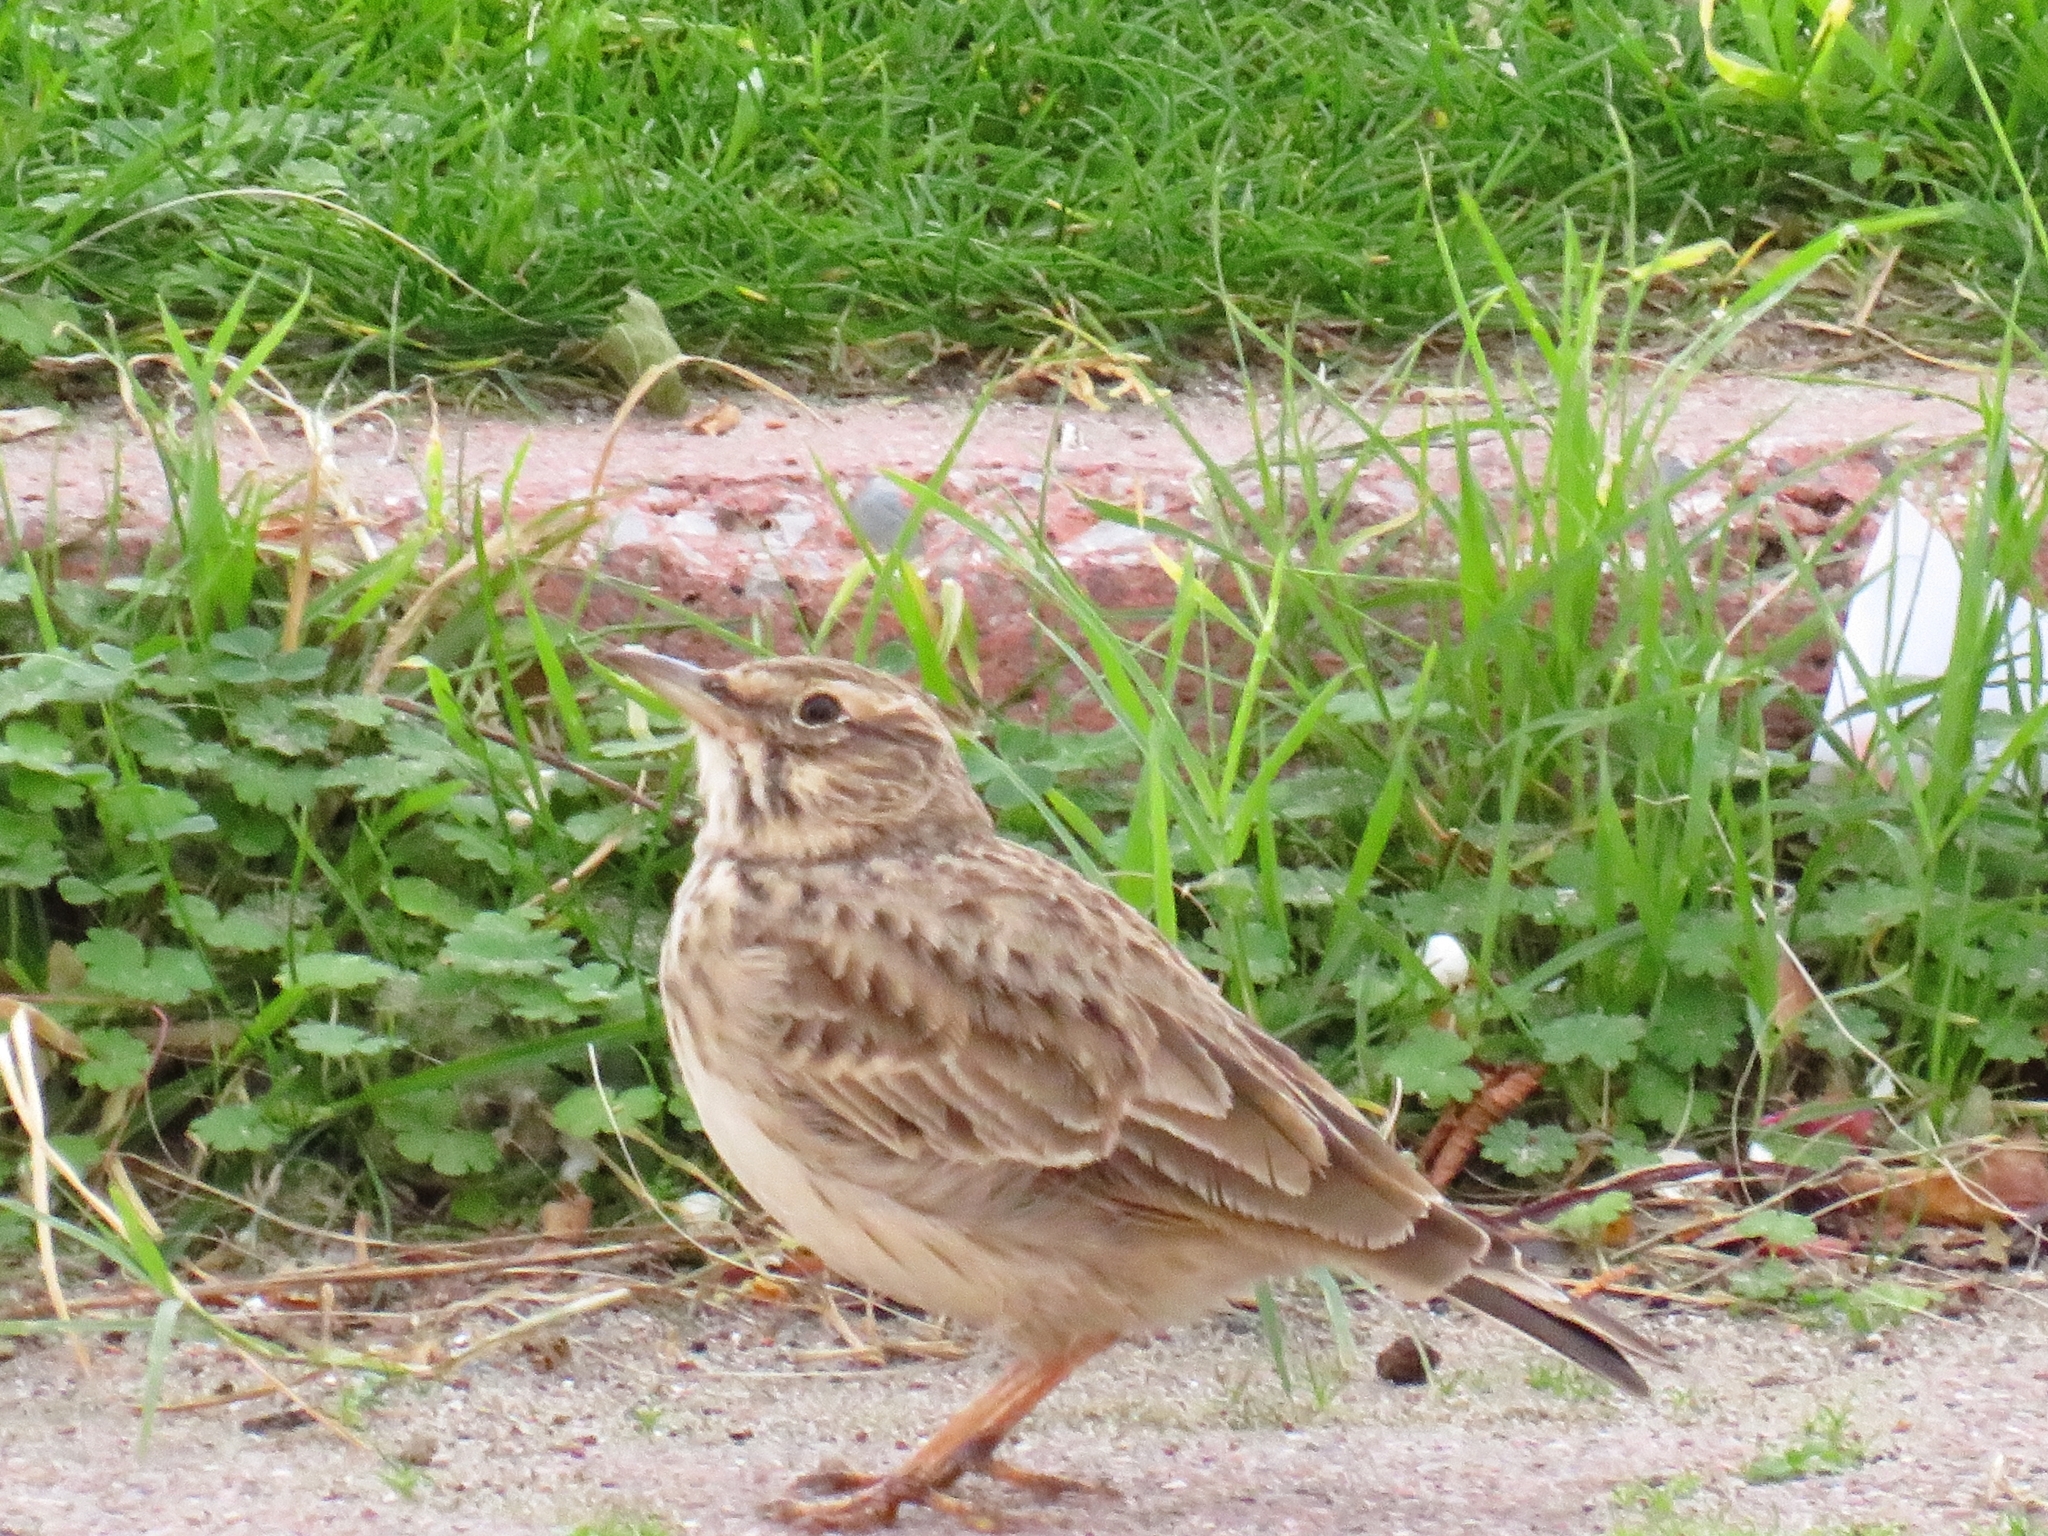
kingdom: Animalia
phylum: Chordata
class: Aves
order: Passeriformes
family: Alaudidae
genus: Galerida
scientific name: Galerida cristata
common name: Crested lark
